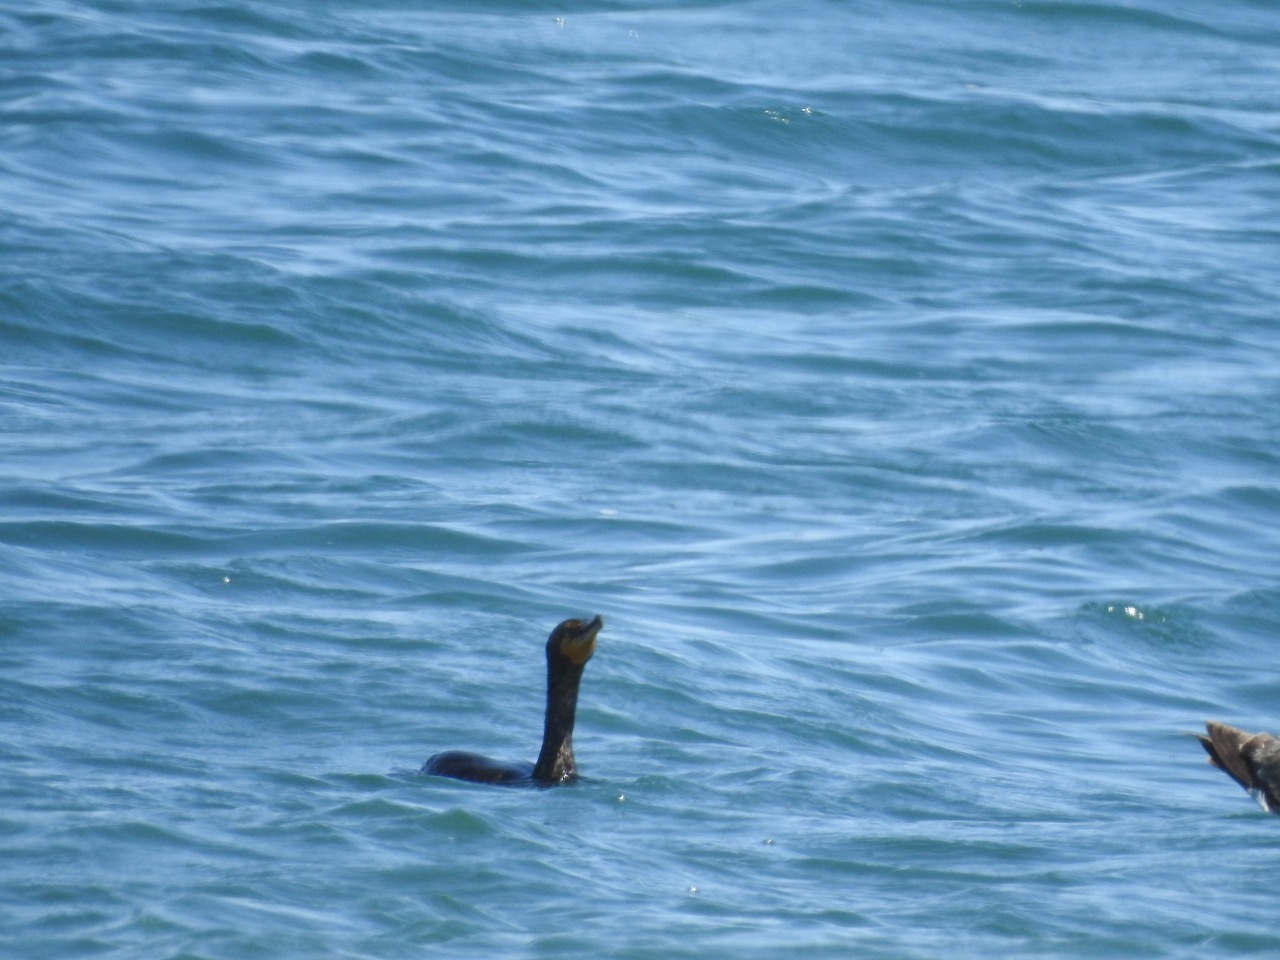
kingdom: Animalia
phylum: Chordata
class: Aves
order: Suliformes
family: Phalacrocoracidae
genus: Phalacrocorax
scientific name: Phalacrocorax auritus
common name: Double-crested cormorant
